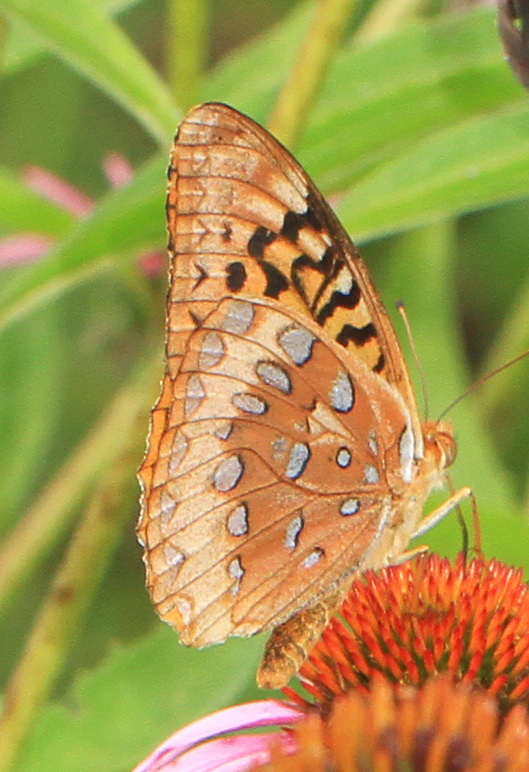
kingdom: Animalia
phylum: Arthropoda
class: Insecta
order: Lepidoptera
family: Nymphalidae
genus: Speyeria
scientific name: Speyeria cybele
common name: Great spangled fritillary
